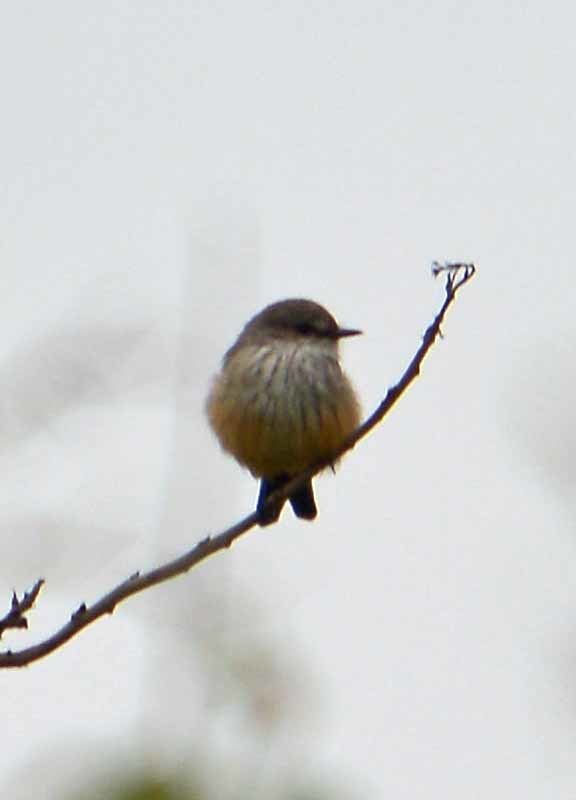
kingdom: Animalia
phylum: Chordata
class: Aves
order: Passeriformes
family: Tyrannidae
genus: Pyrocephalus
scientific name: Pyrocephalus rubinus
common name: Vermilion flycatcher
